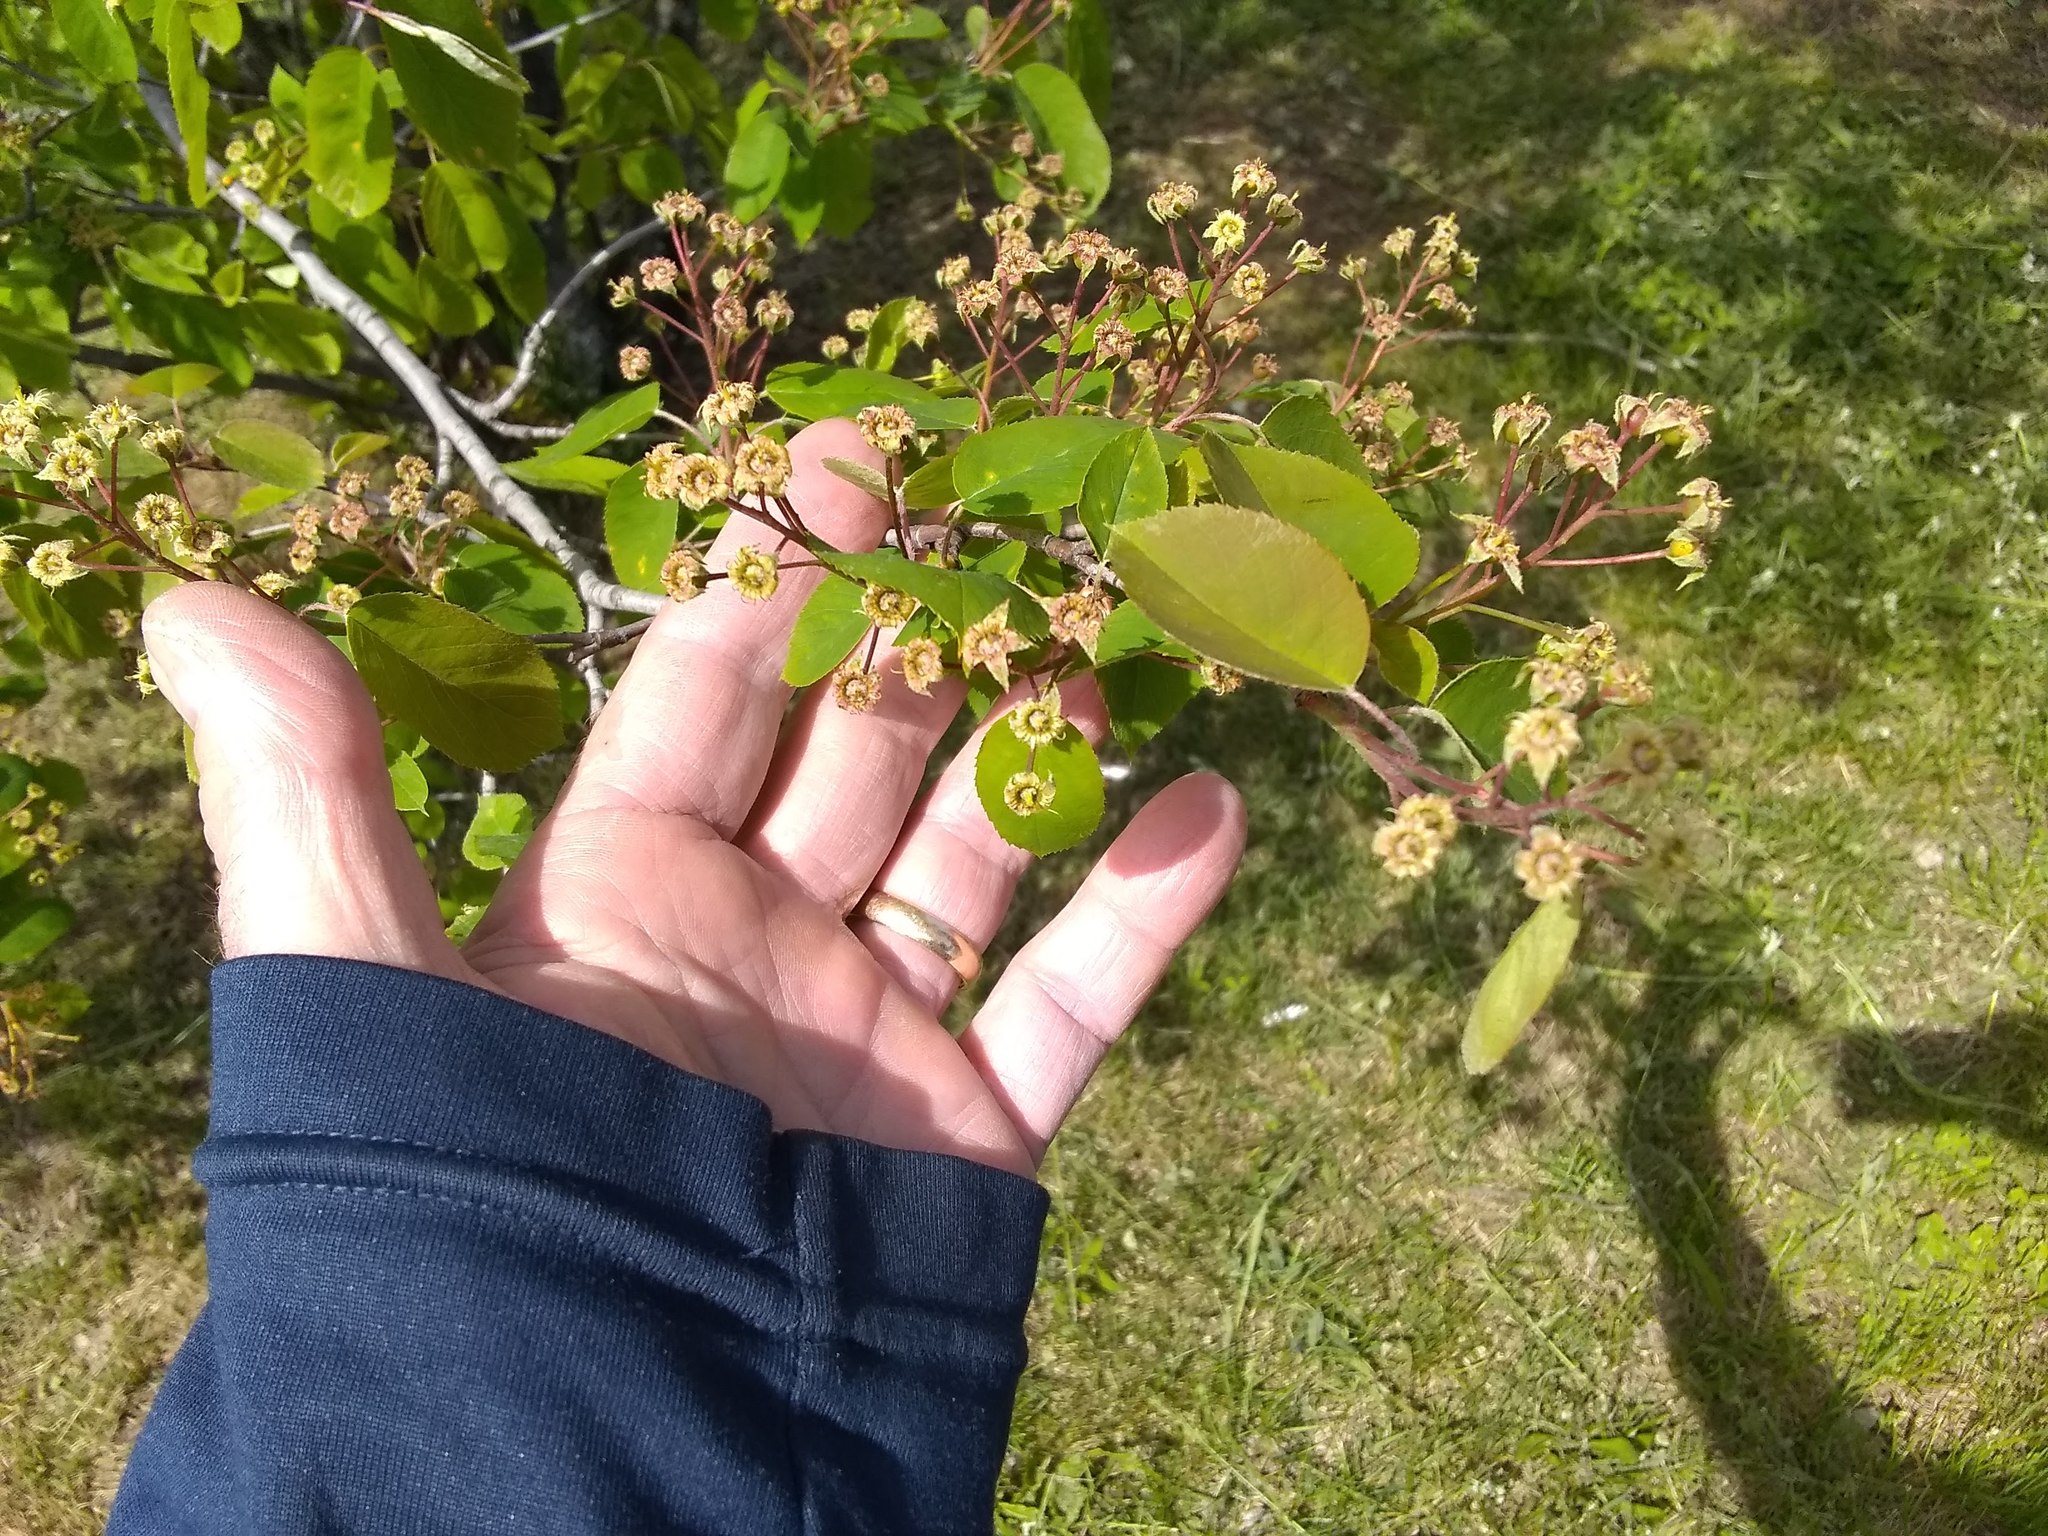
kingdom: Plantae
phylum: Tracheophyta
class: Magnoliopsida
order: Rosales
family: Rosaceae
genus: Amelanchier
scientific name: Amelanchier arborea
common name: Downy serviceberry
